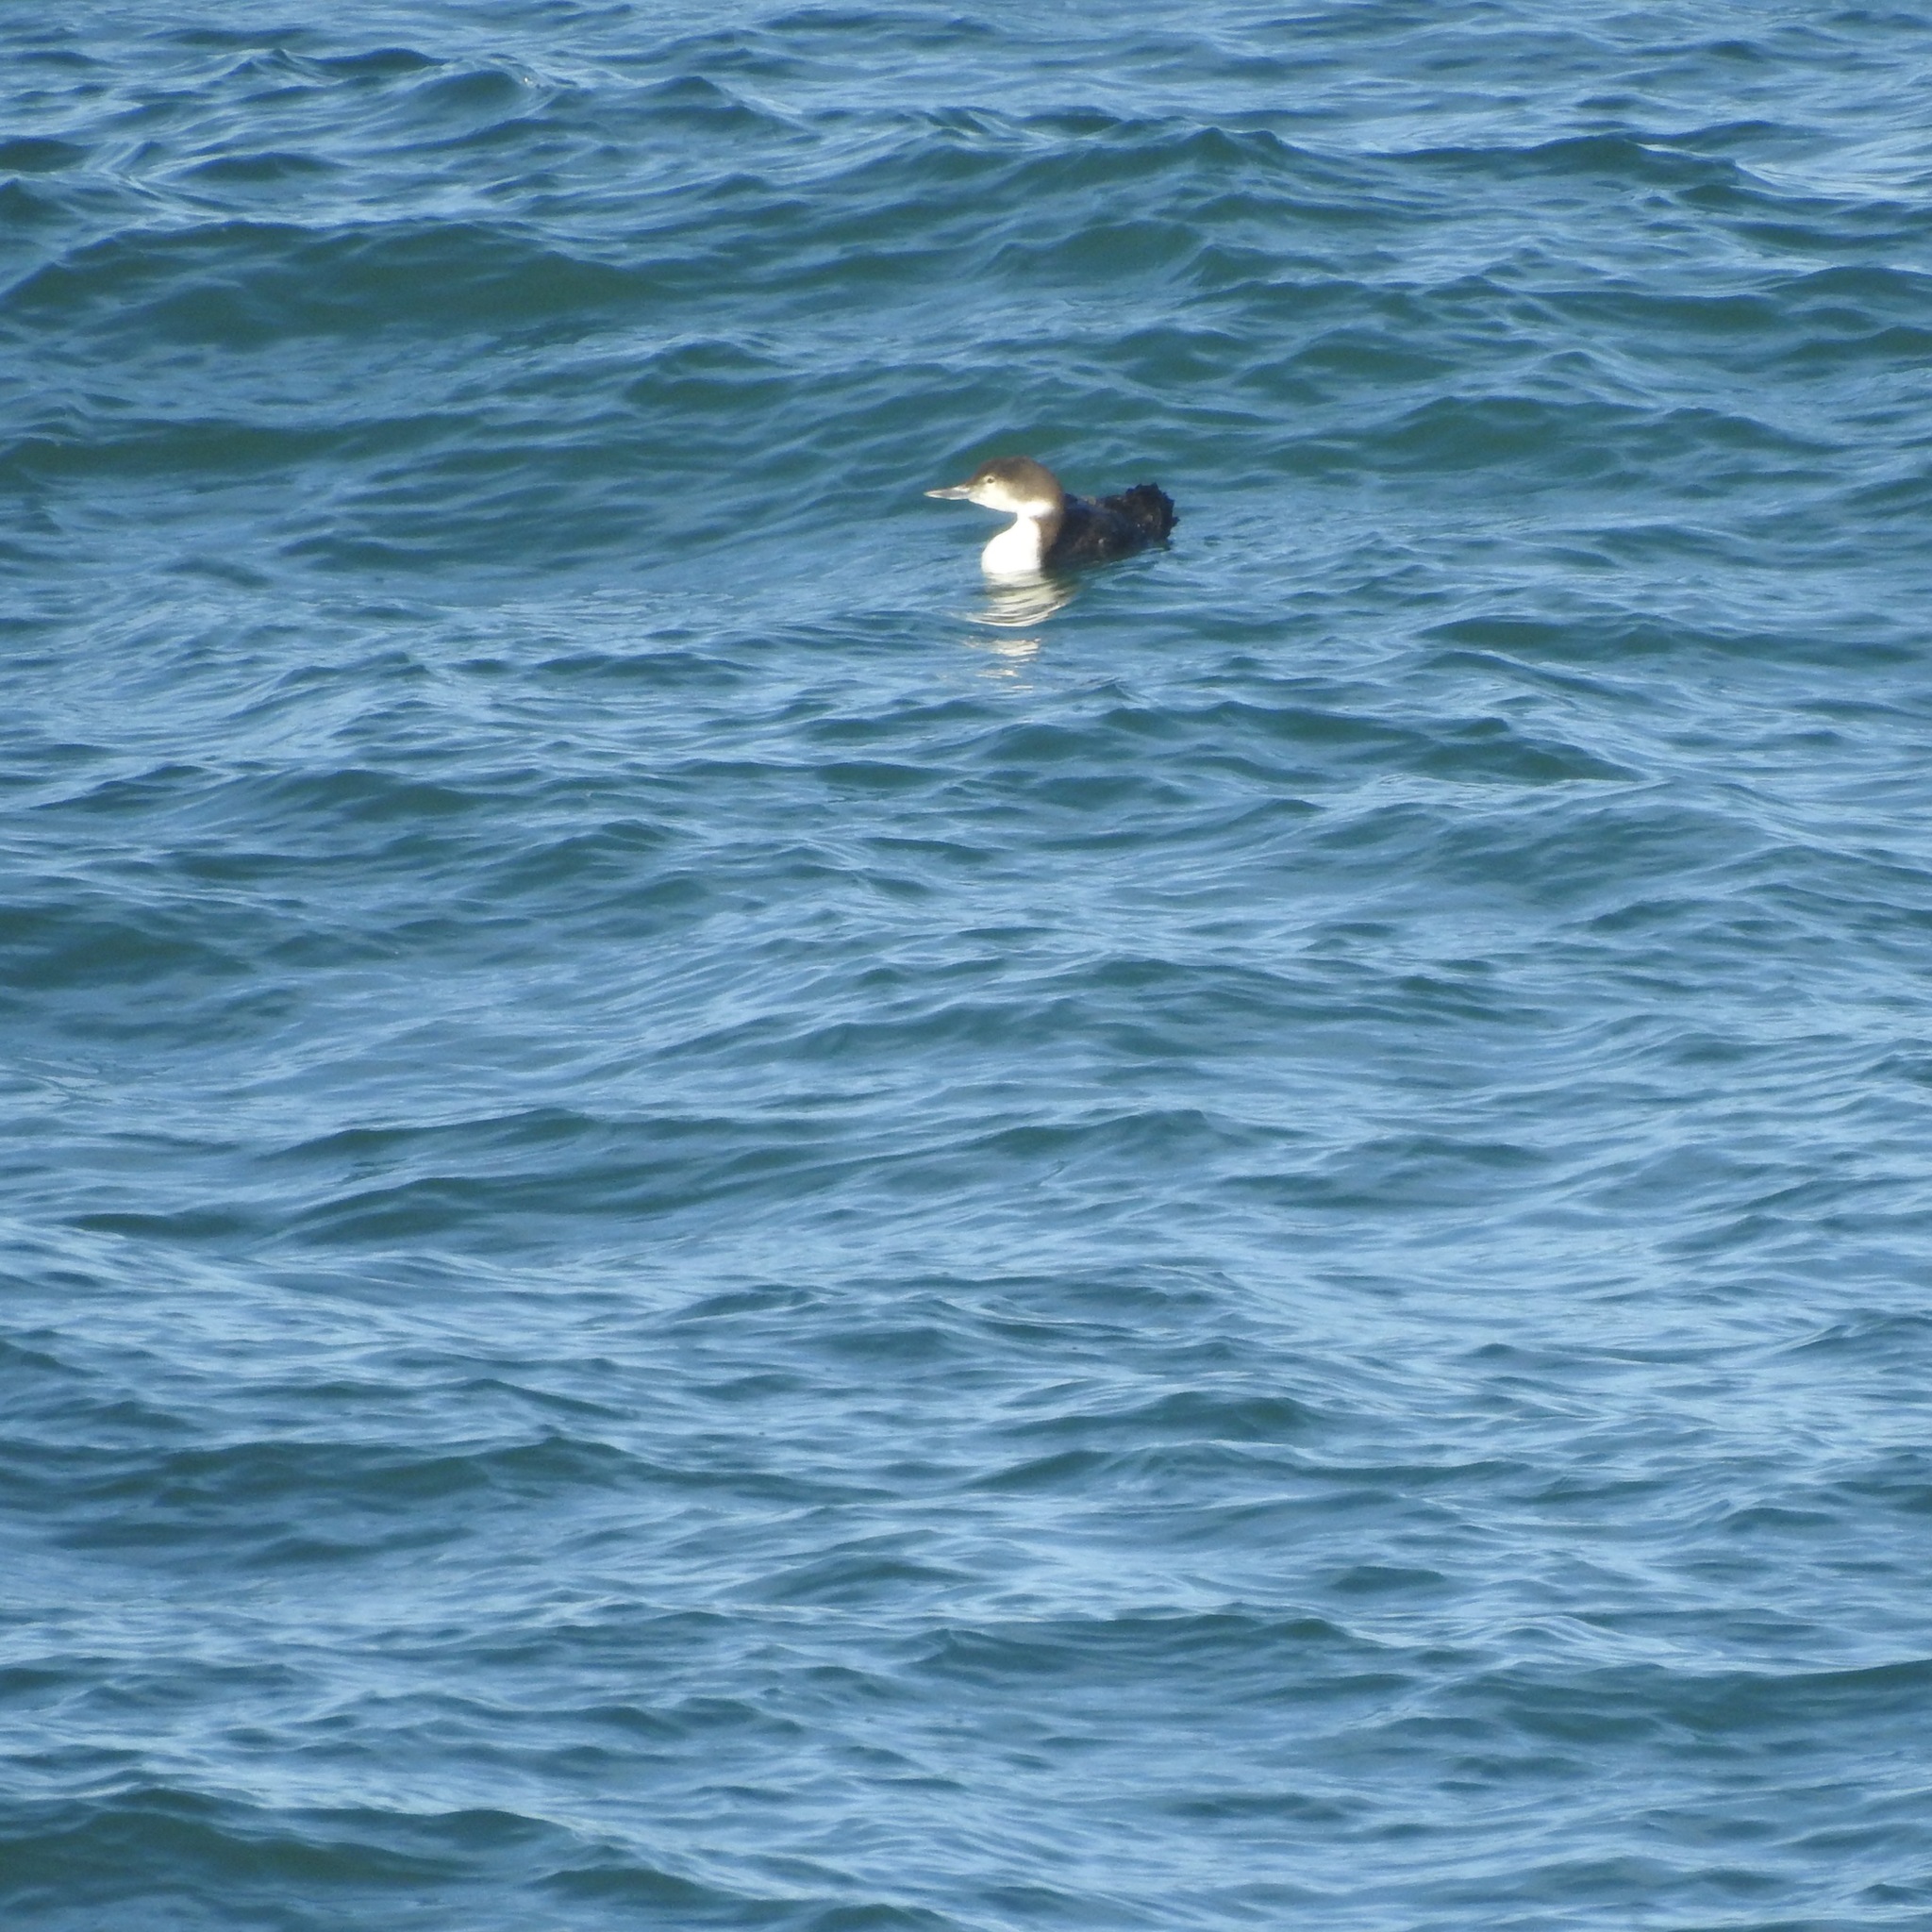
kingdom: Animalia
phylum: Chordata
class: Aves
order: Gaviiformes
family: Gaviidae
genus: Gavia
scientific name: Gavia immer
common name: Common loon
